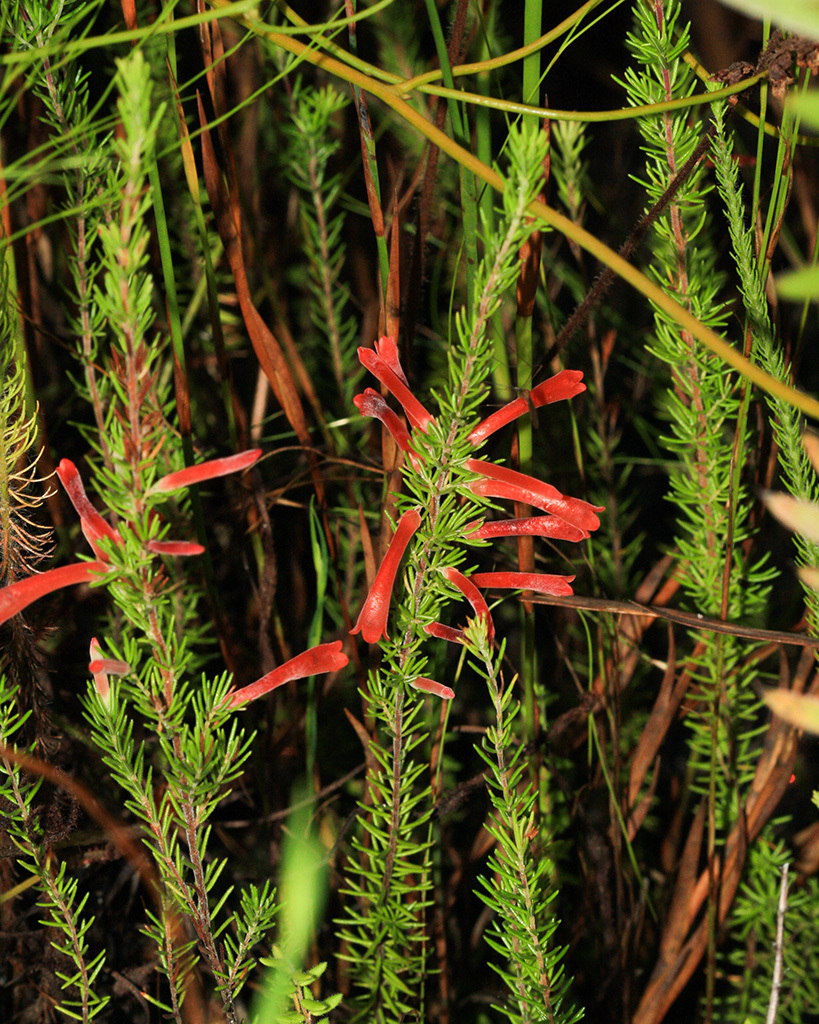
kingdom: Plantae
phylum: Tracheophyta
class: Magnoliopsida
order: Ericales
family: Ericaceae
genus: Erica
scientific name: Erica pillansii
